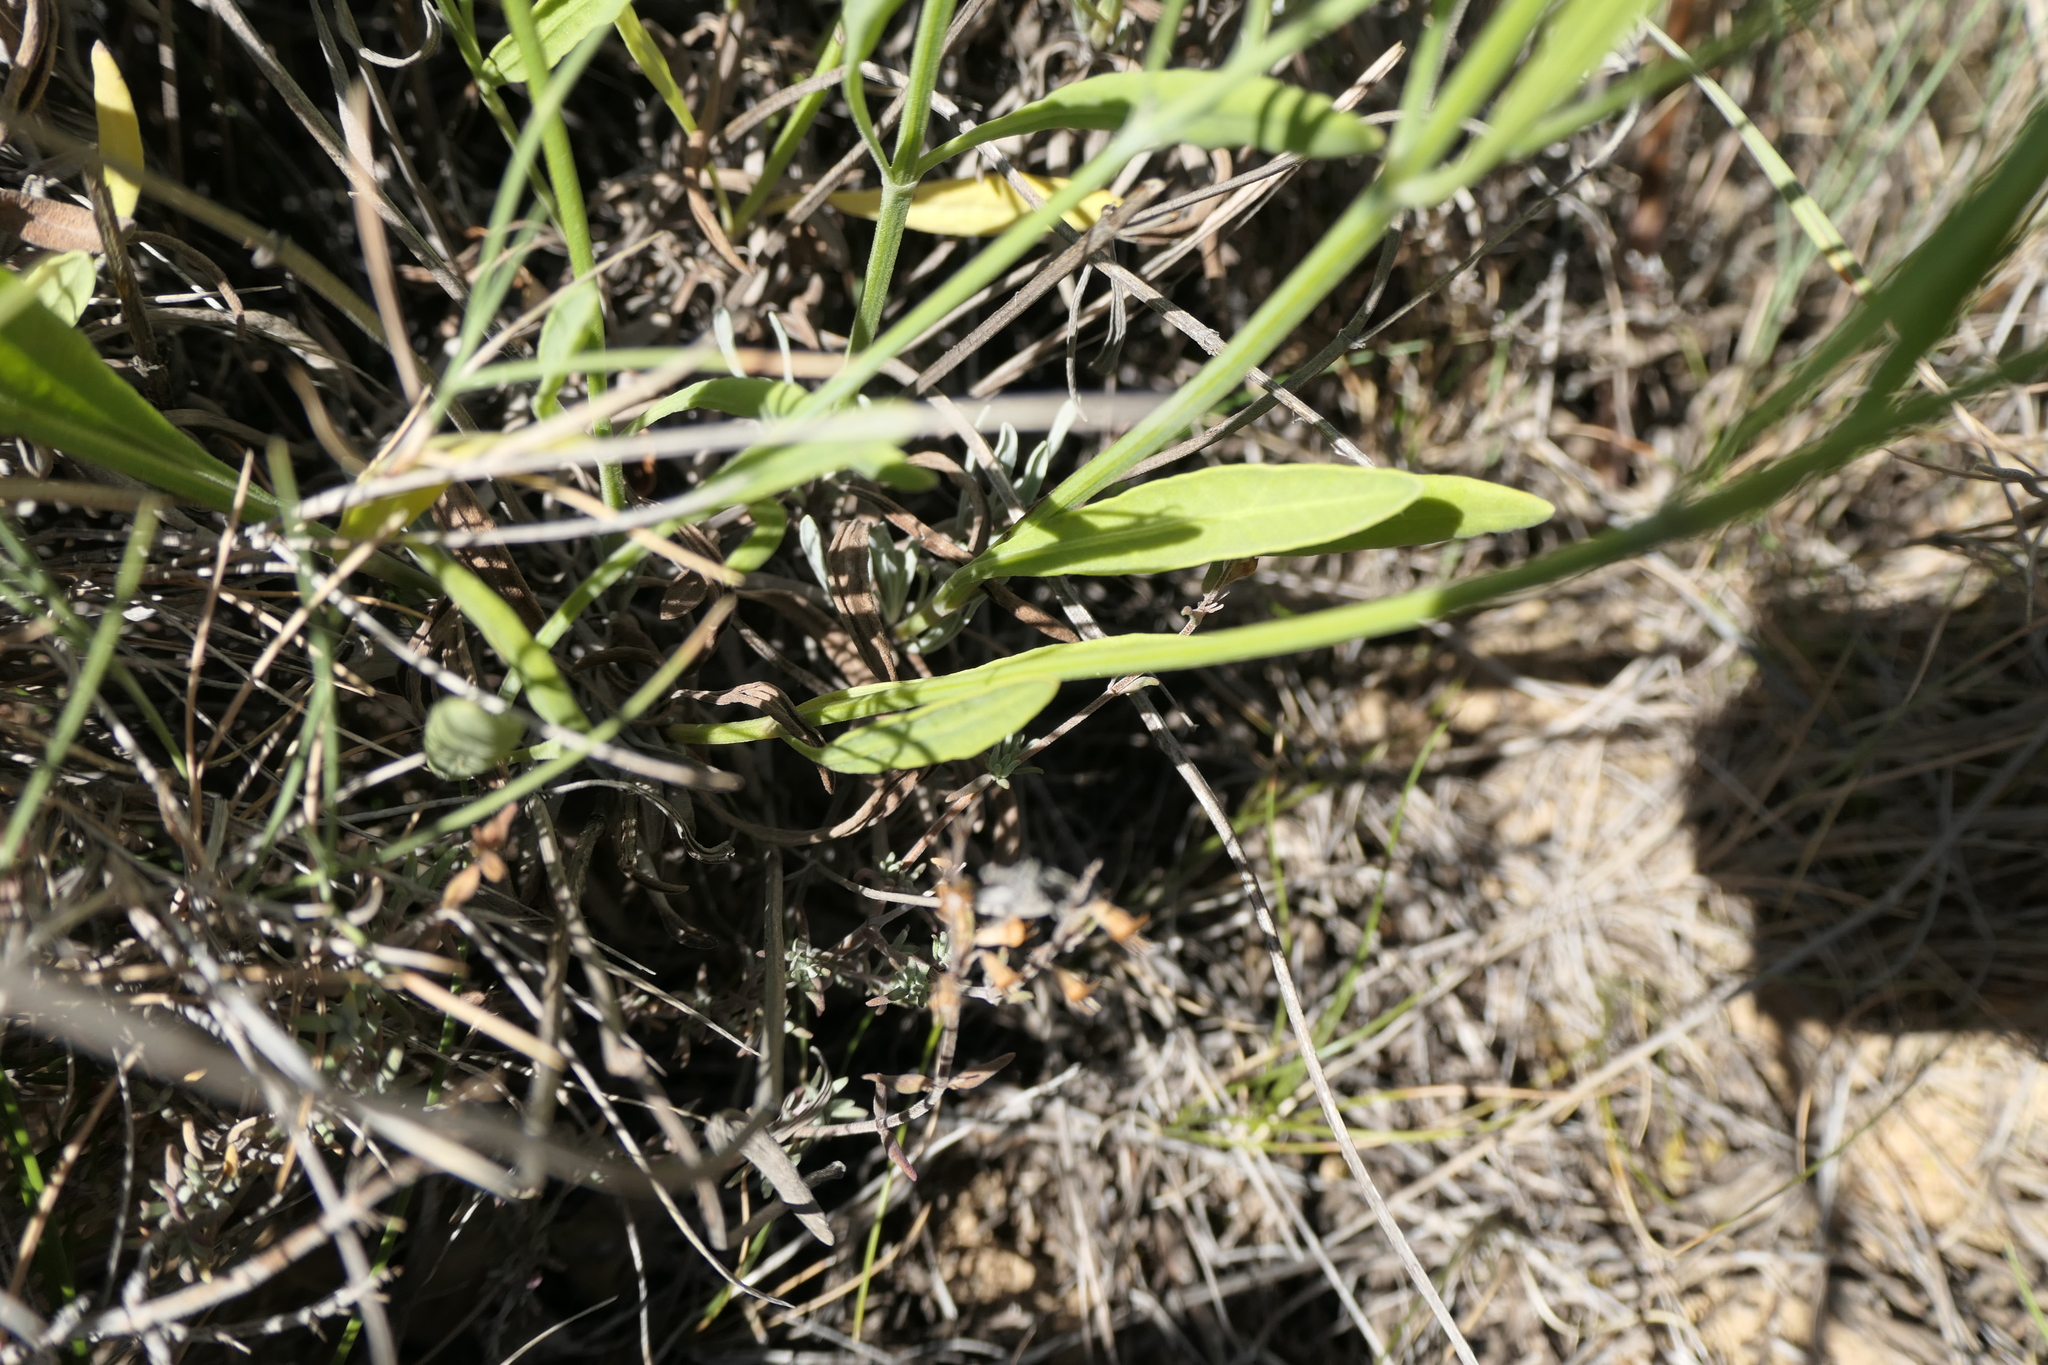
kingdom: Plantae
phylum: Tracheophyta
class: Magnoliopsida
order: Lamiales
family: Lamiaceae
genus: Lavandula
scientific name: Lavandula latifolia
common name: Spike lavendar
